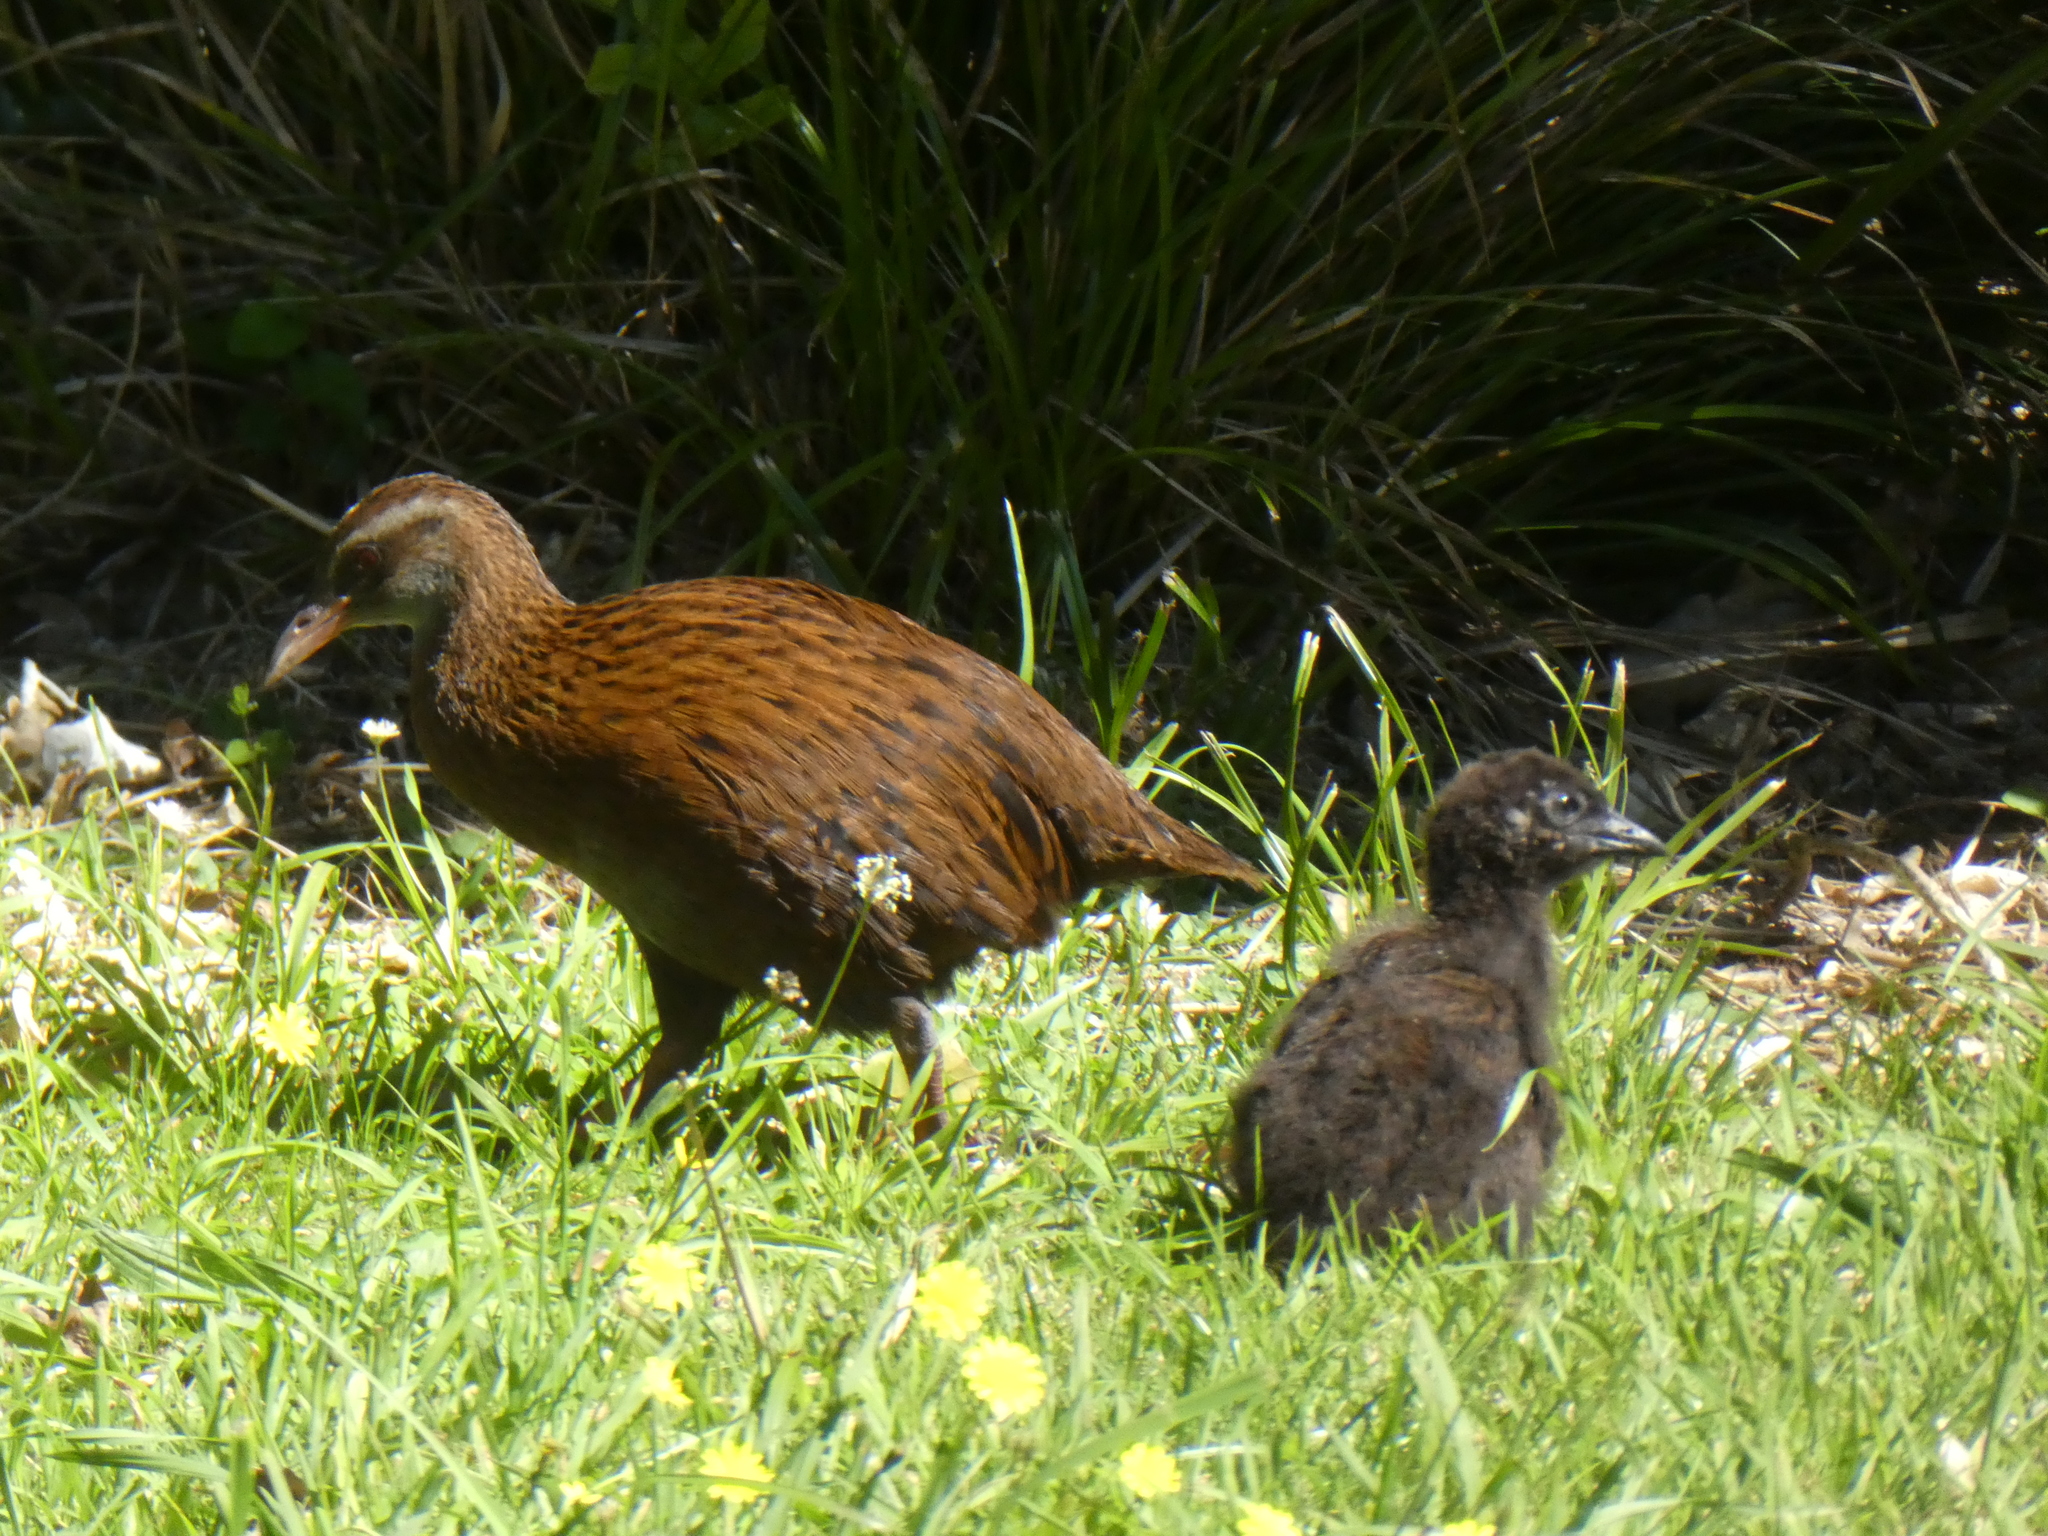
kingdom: Animalia
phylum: Chordata
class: Aves
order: Gruiformes
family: Rallidae
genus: Gallirallus
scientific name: Gallirallus australis
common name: Weka
